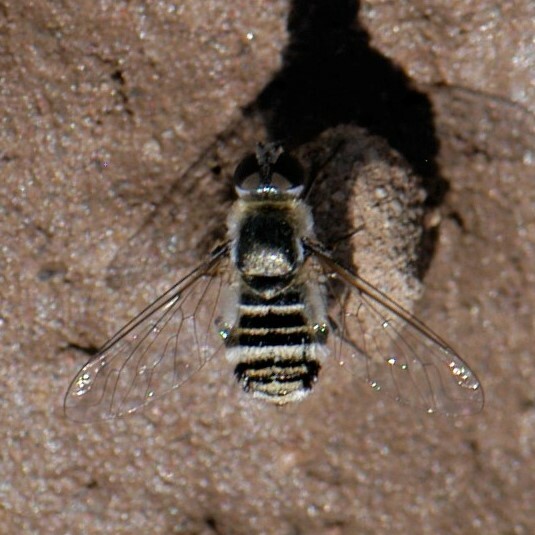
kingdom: Animalia
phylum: Arthropoda
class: Insecta
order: Diptera
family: Bombyliidae
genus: Villa
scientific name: Villa
